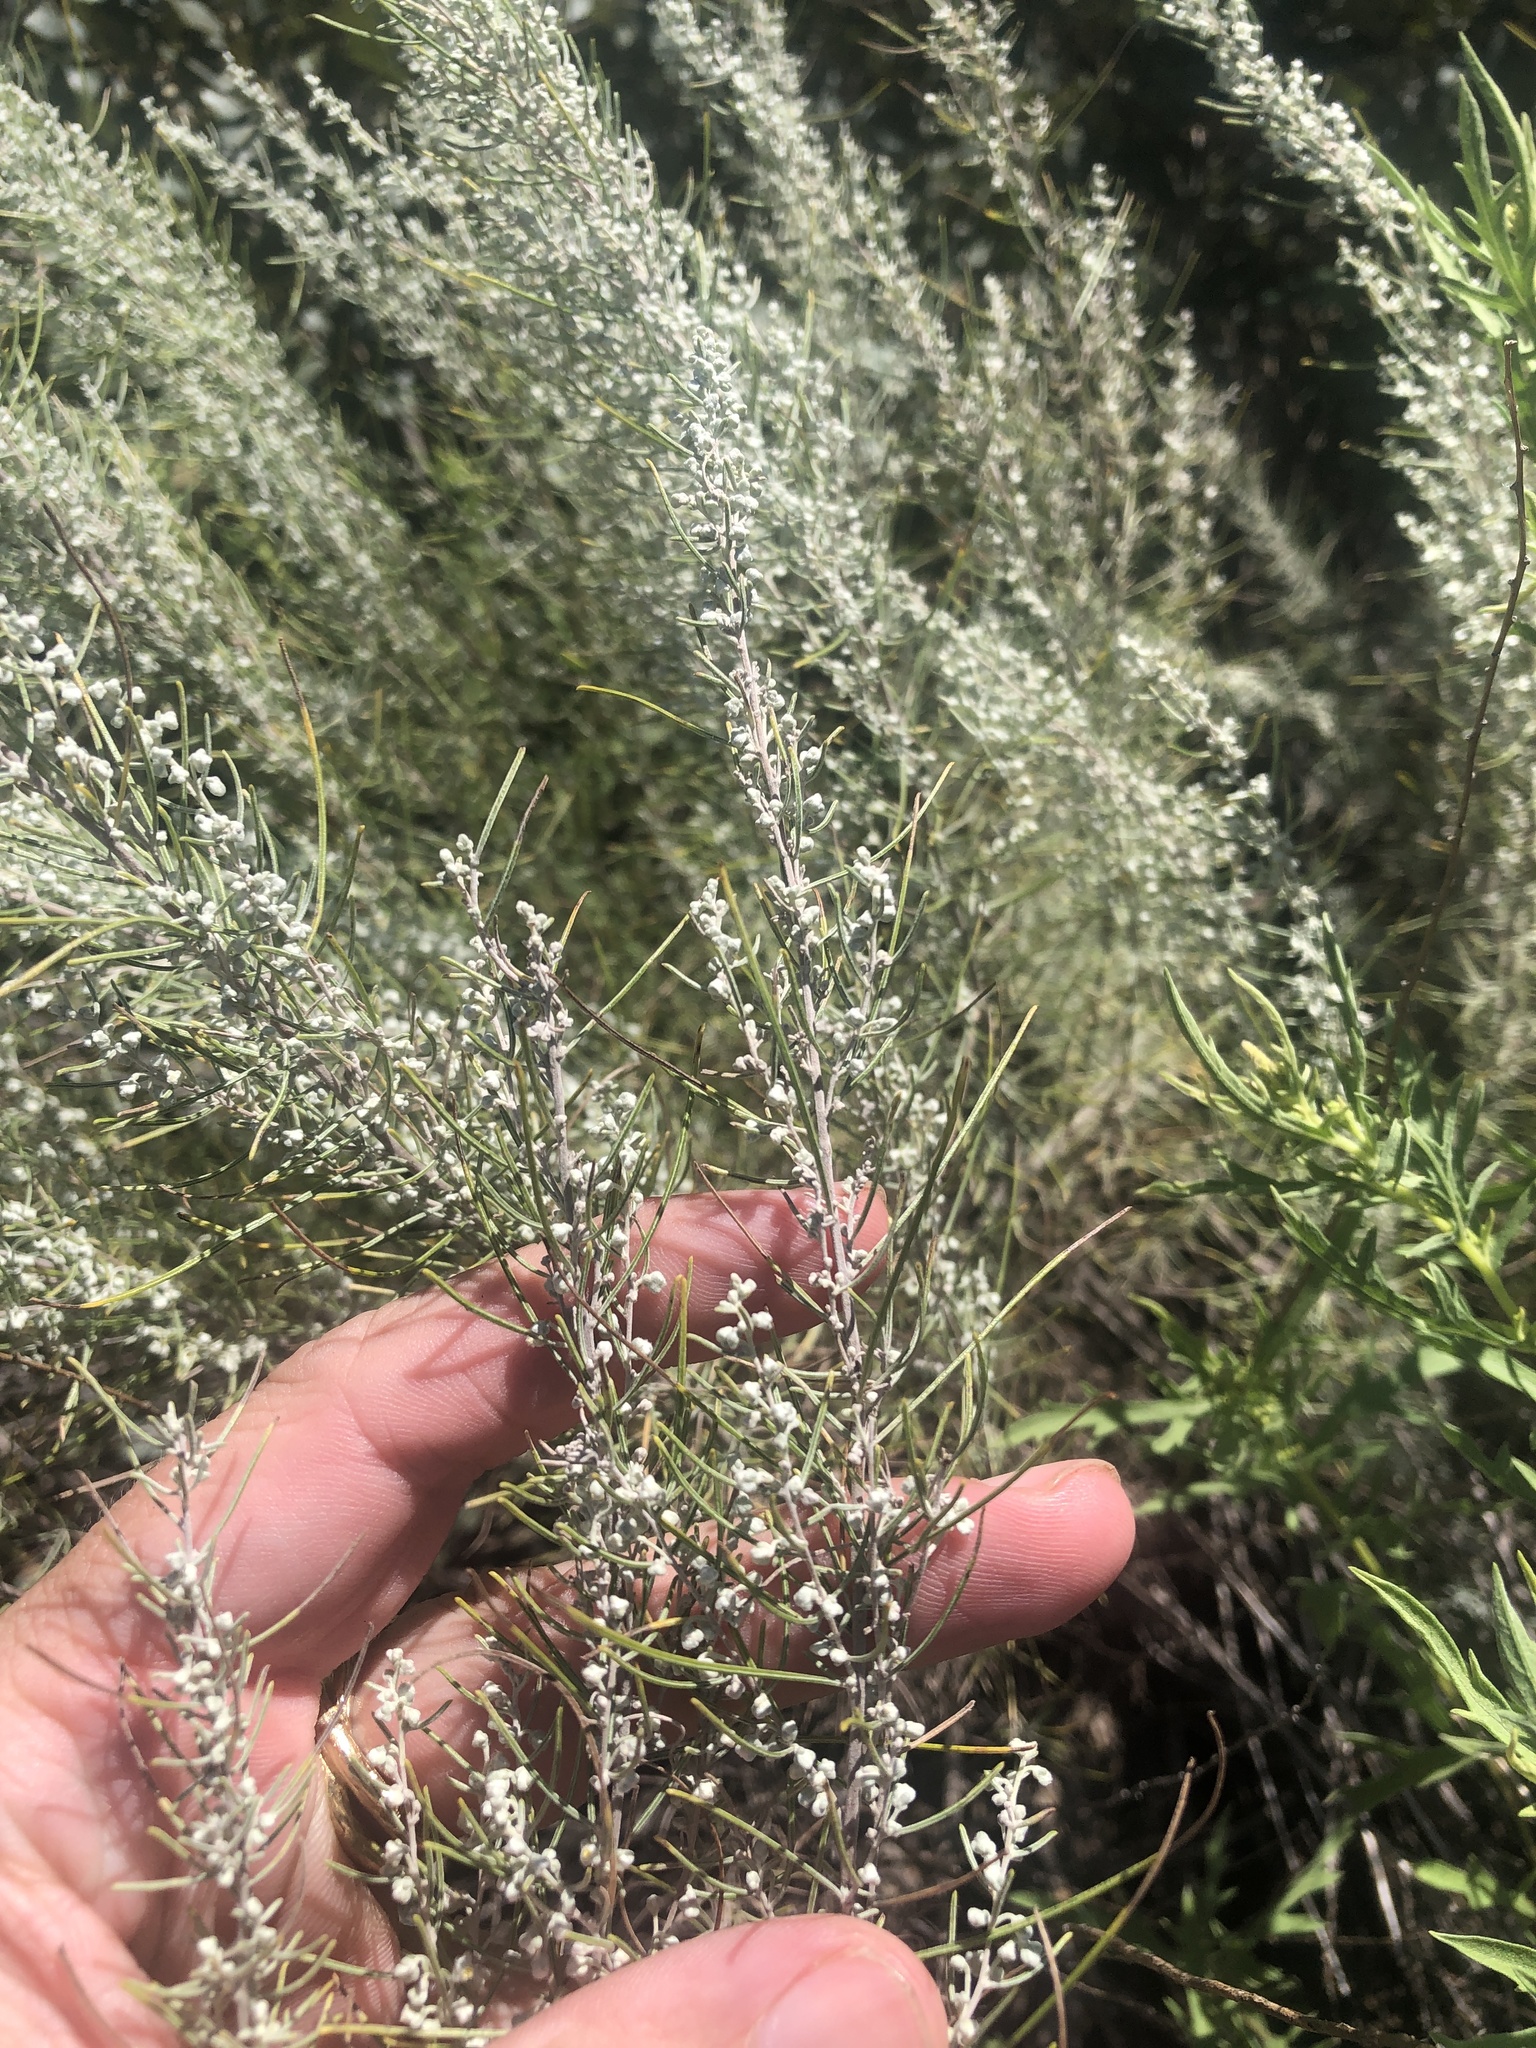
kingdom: Plantae
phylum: Tracheophyta
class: Magnoliopsida
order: Asterales
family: Asteraceae
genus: Artemisia
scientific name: Artemisia filifolia
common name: Sand-sage
